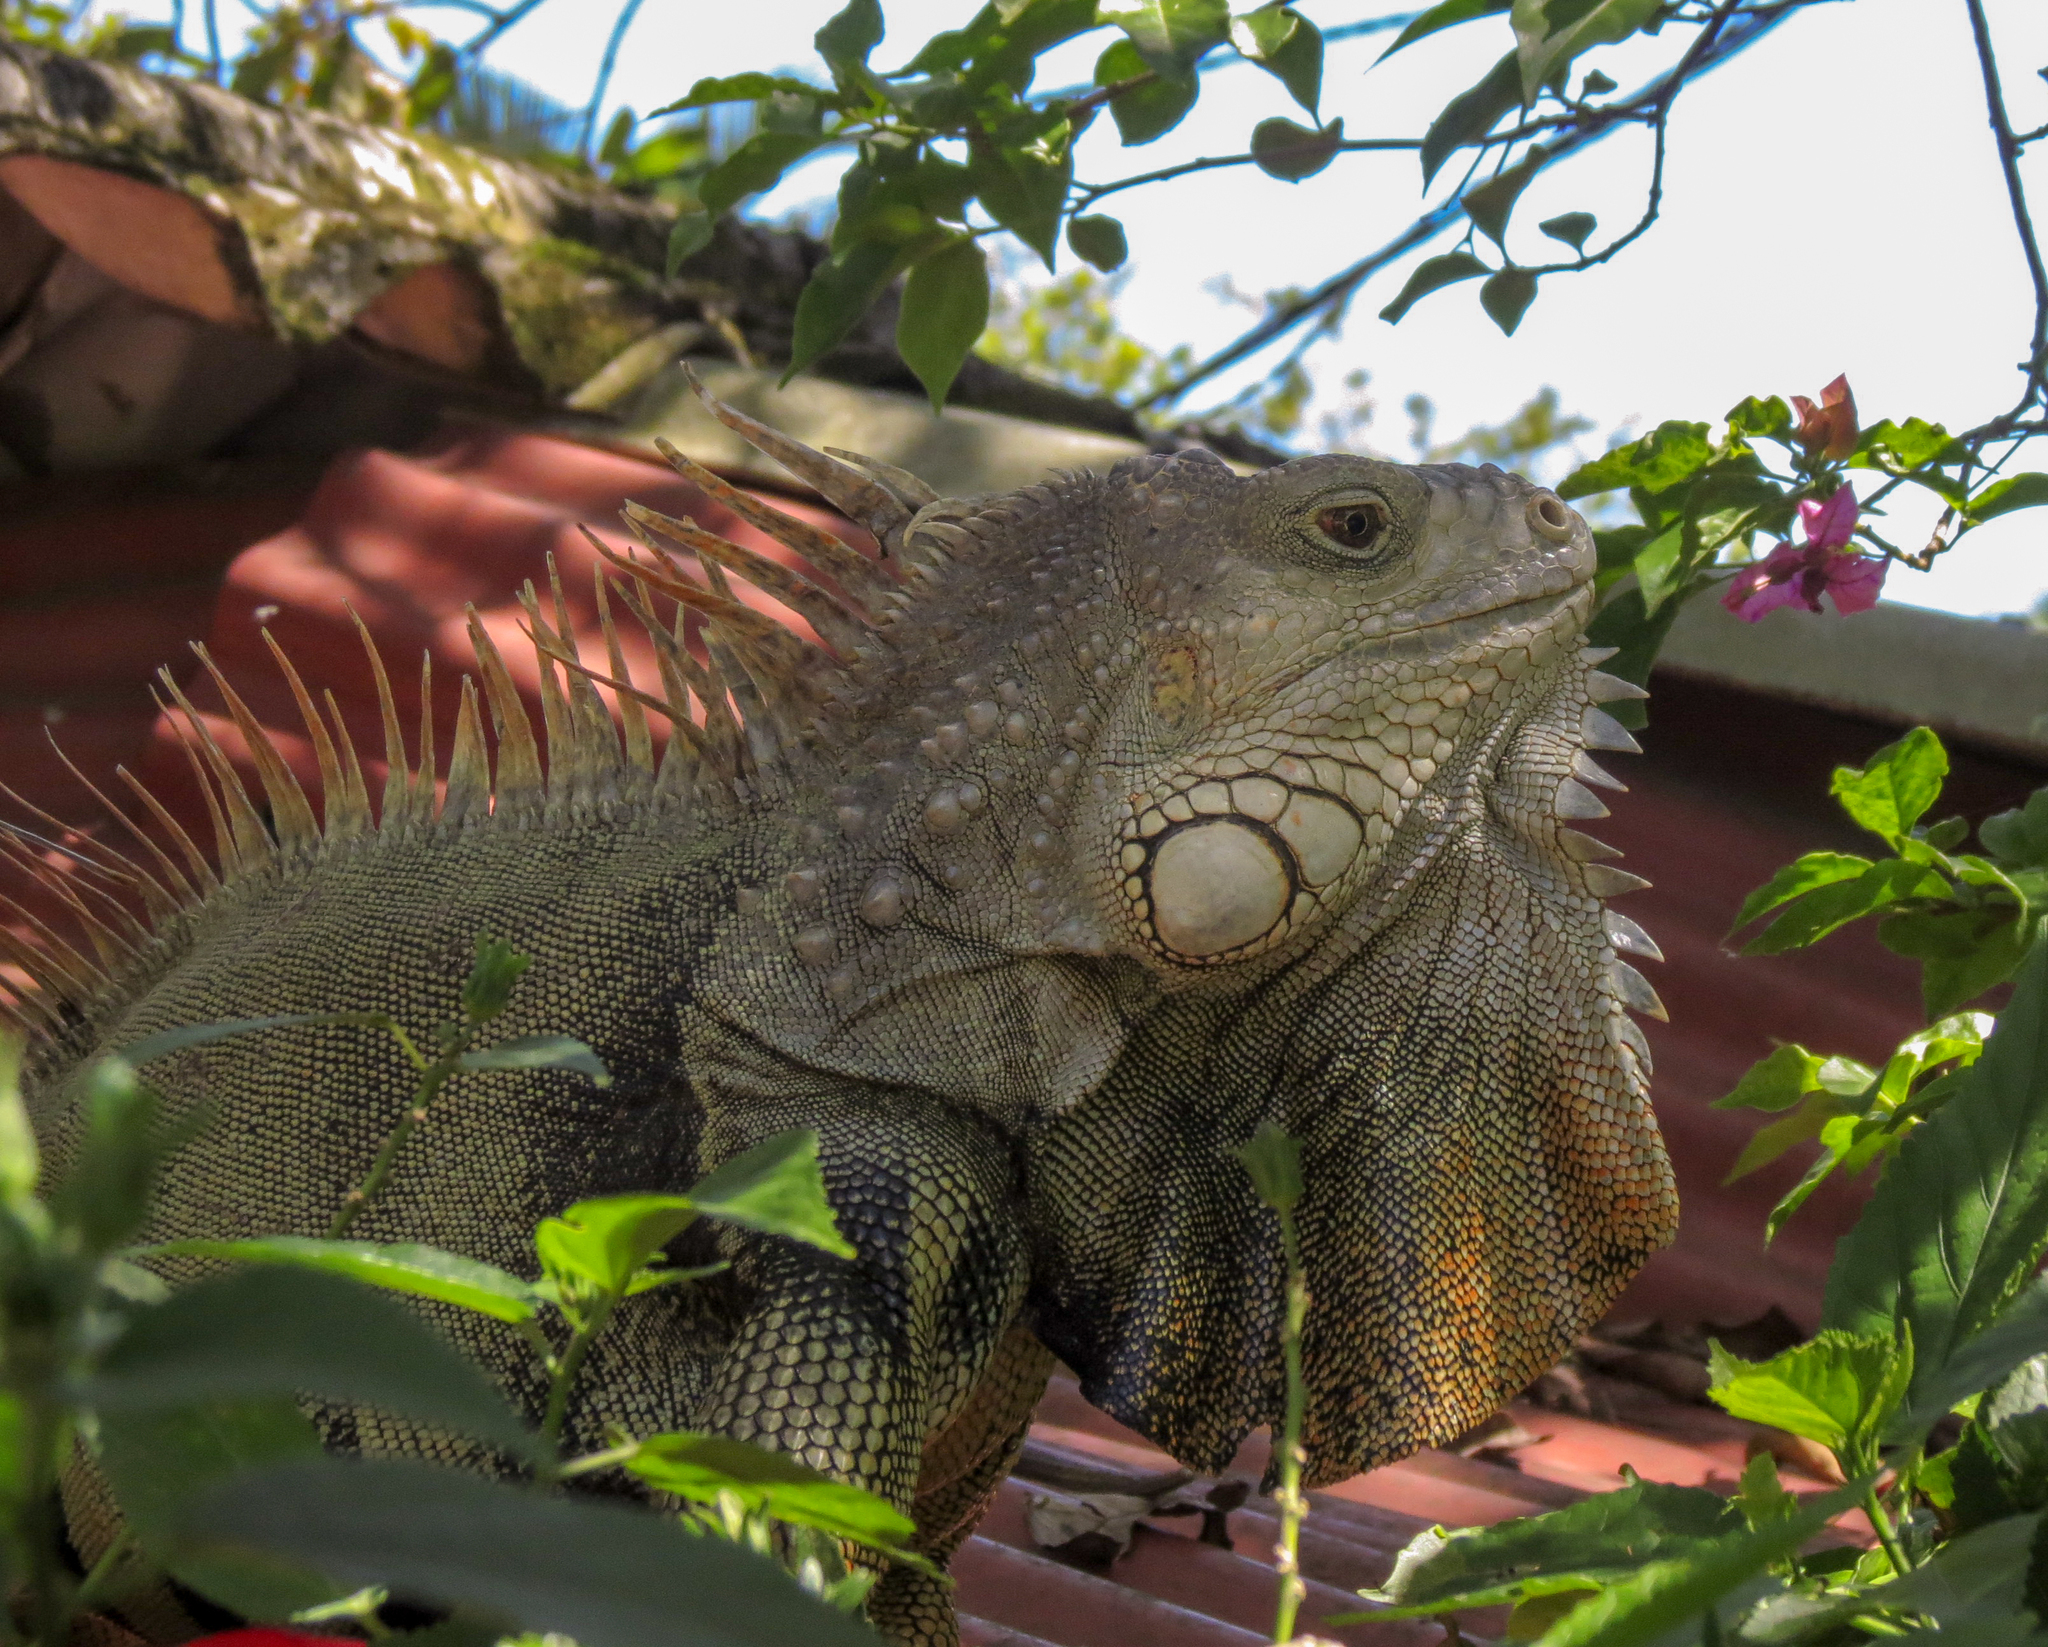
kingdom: Animalia
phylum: Chordata
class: Squamata
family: Iguanidae
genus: Iguana
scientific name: Iguana iguana
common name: Green iguana
